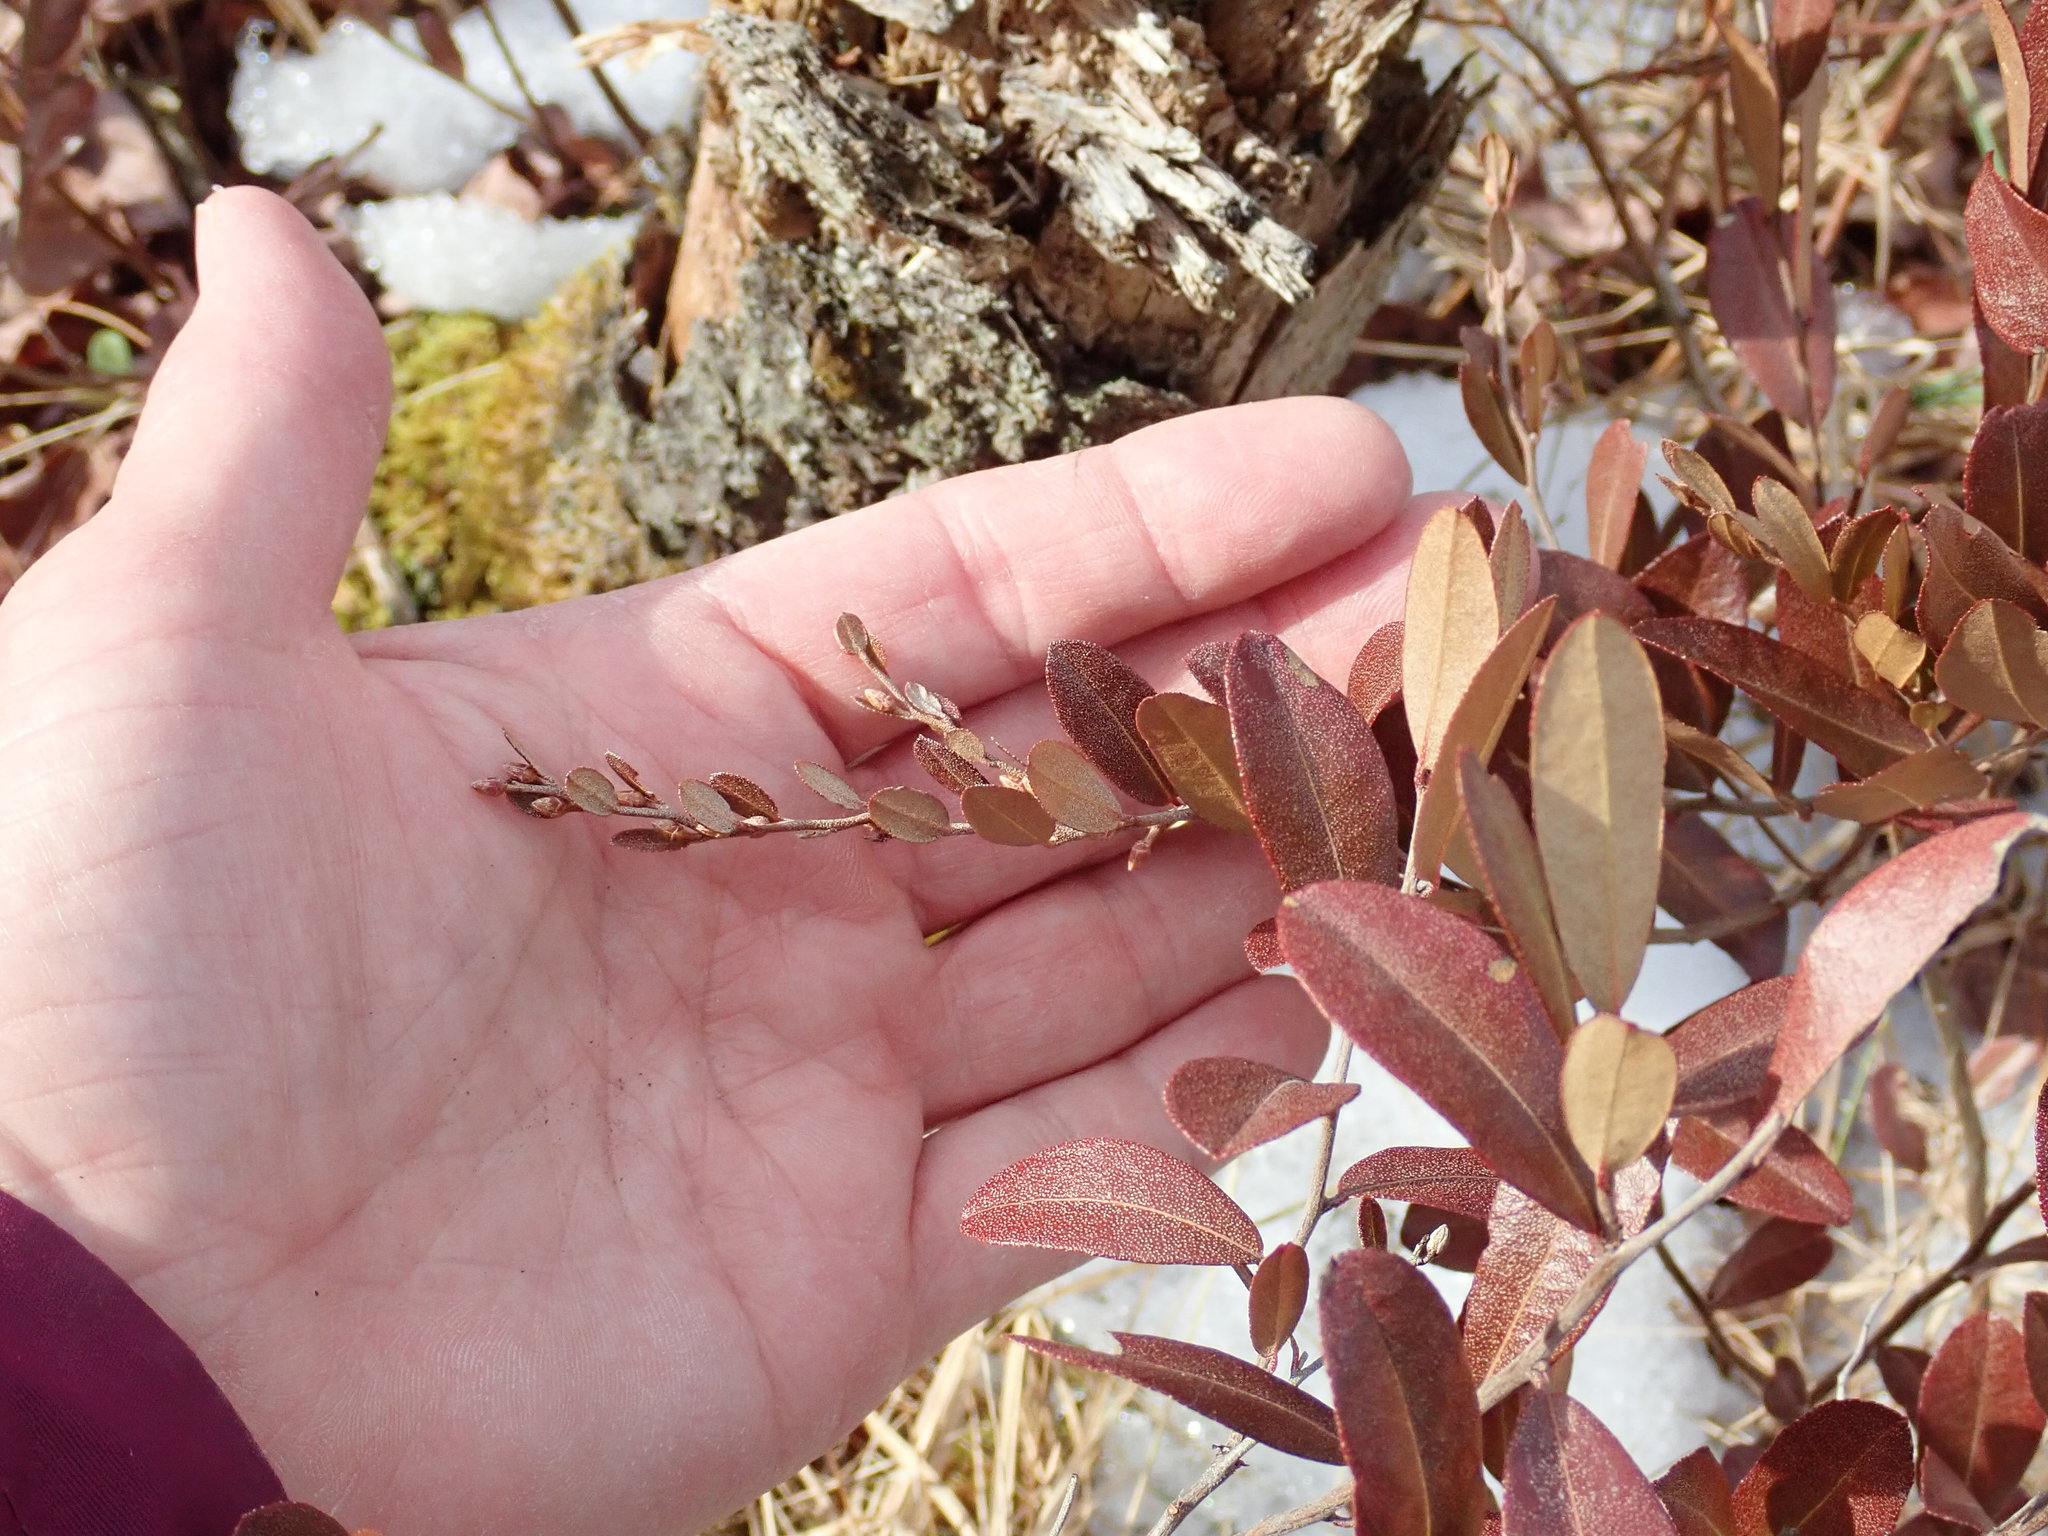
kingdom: Plantae
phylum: Tracheophyta
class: Magnoliopsida
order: Ericales
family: Ericaceae
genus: Chamaedaphne
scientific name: Chamaedaphne calyculata
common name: Leatherleaf
